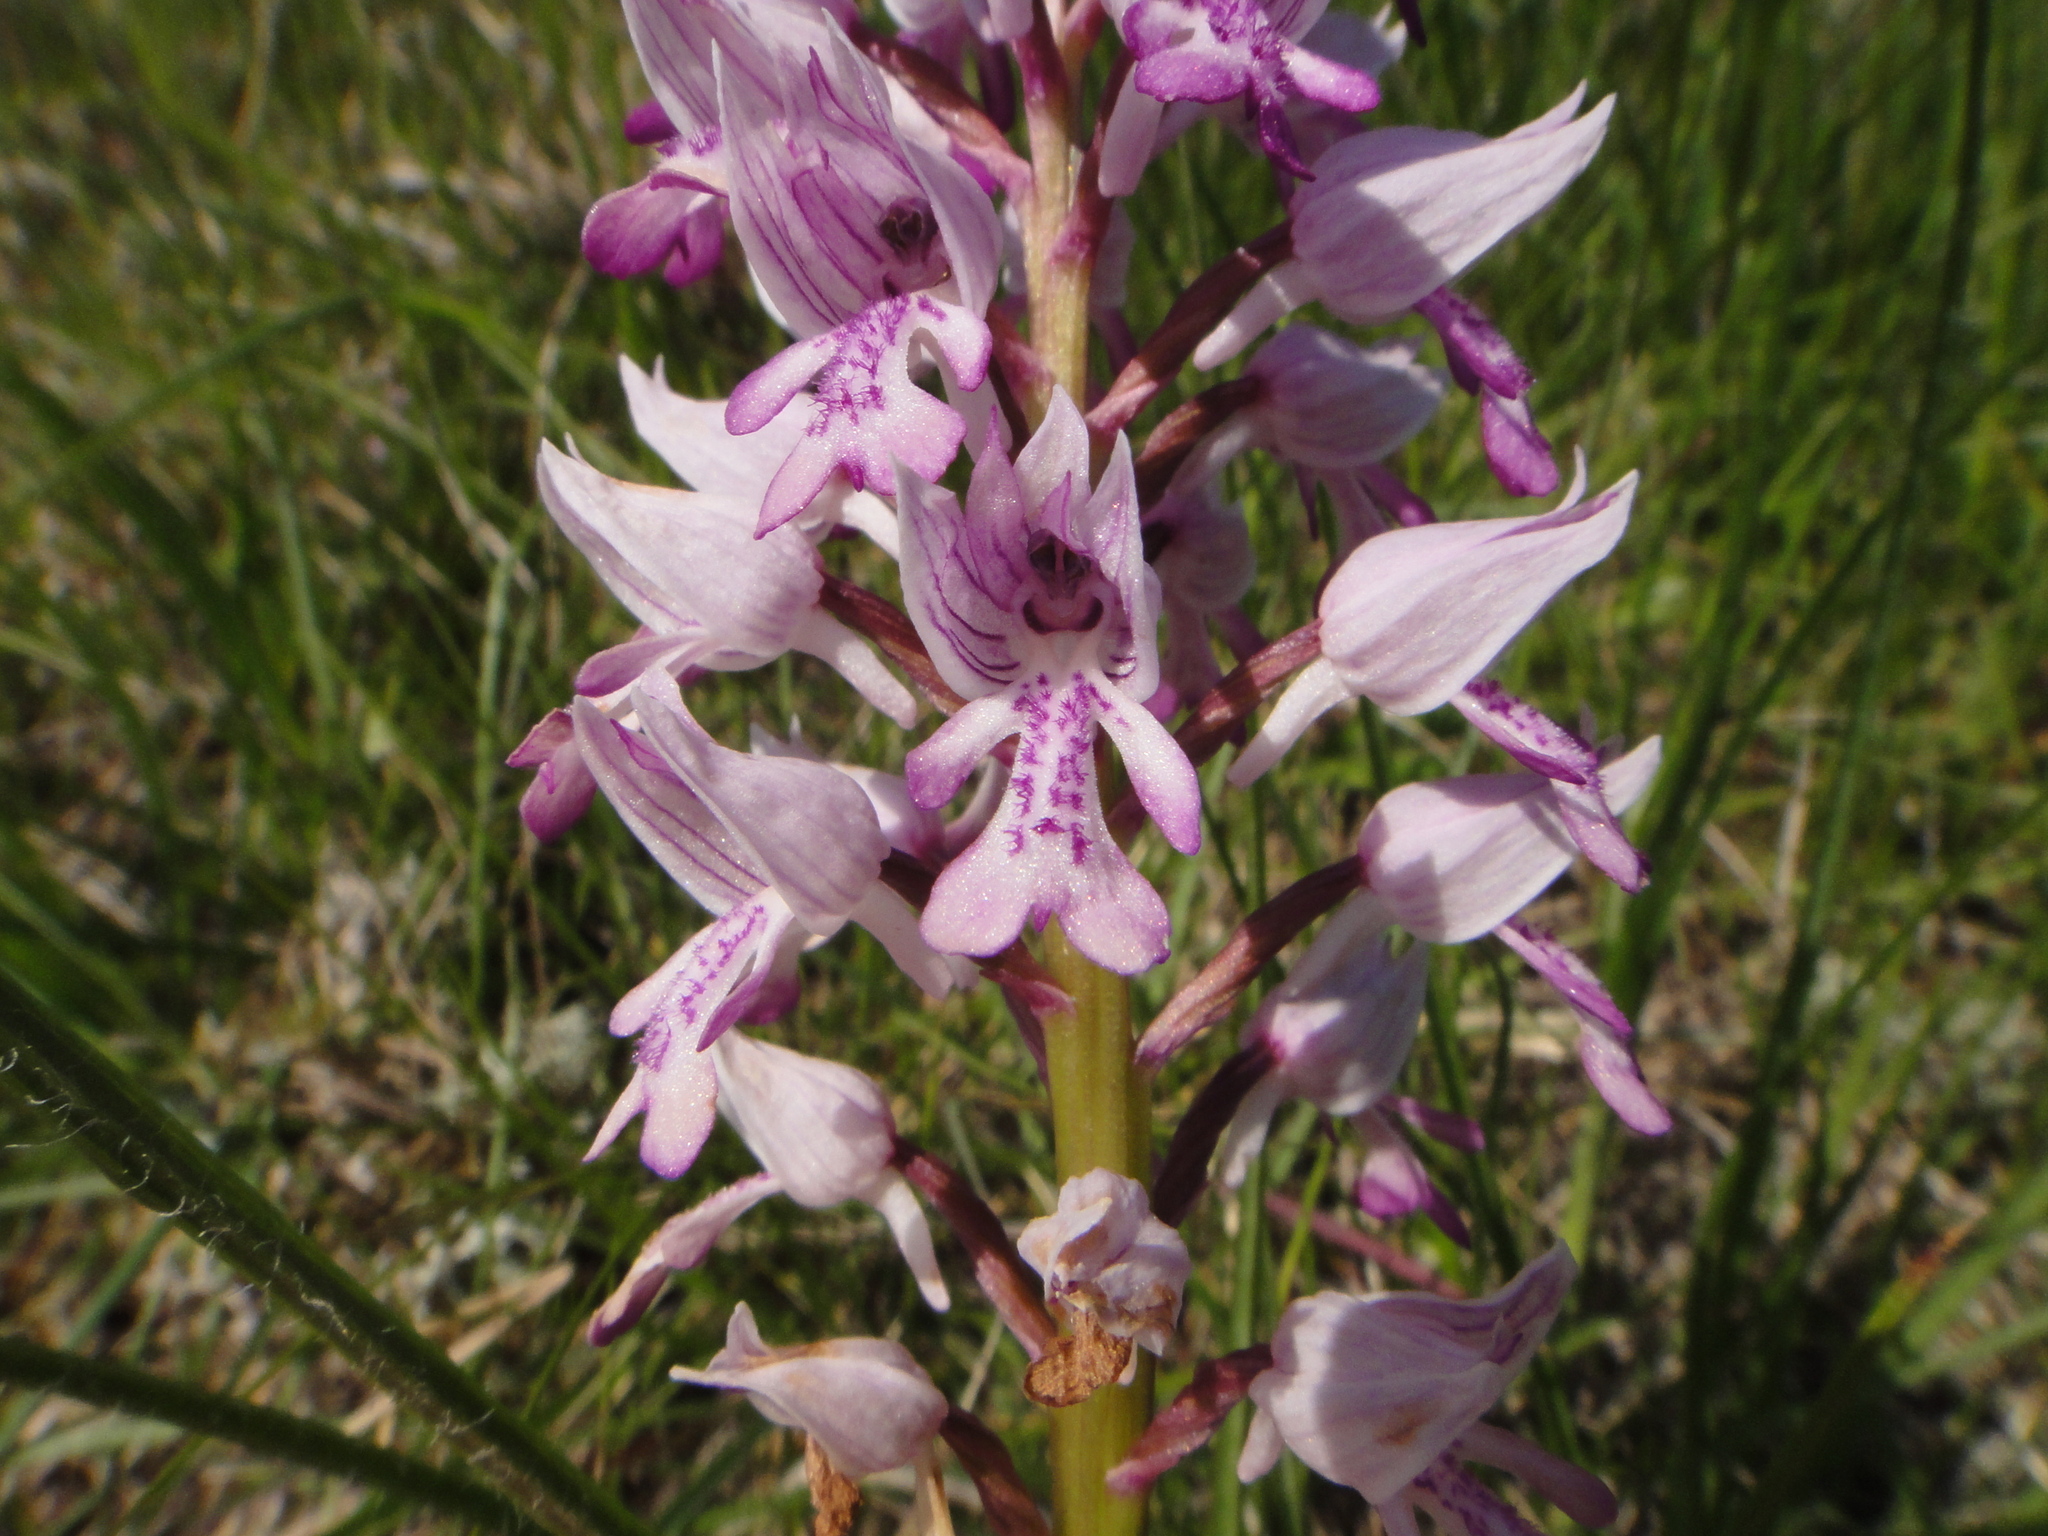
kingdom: Plantae
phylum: Tracheophyta
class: Liliopsida
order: Asparagales
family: Orchidaceae
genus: Orchis
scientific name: Orchis militaris
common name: Military orchid
